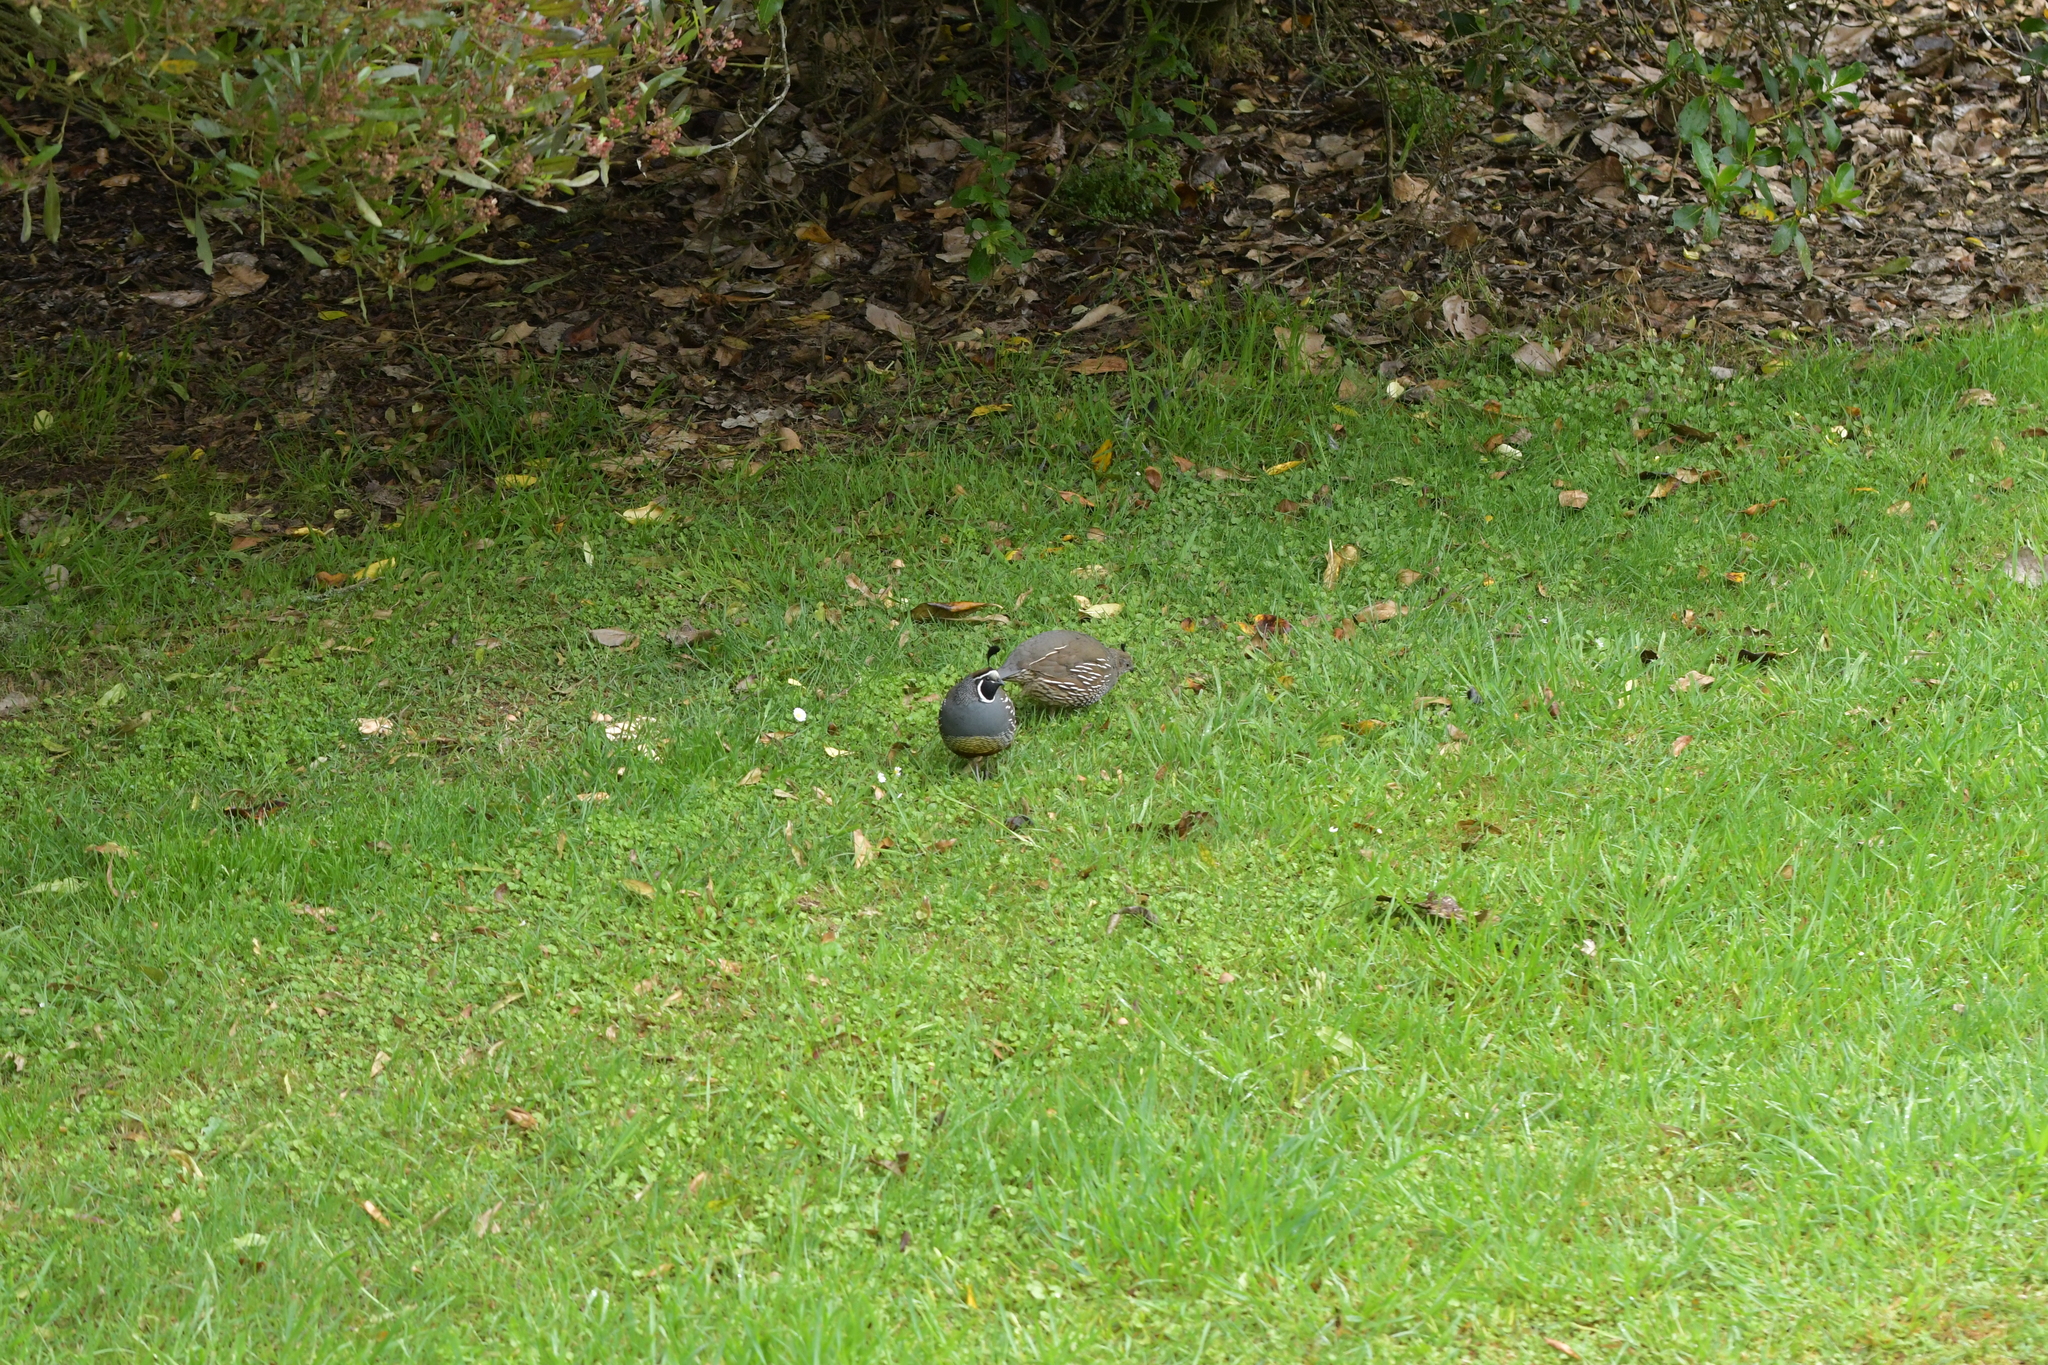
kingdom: Animalia
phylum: Chordata
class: Aves
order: Galliformes
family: Odontophoridae
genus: Callipepla
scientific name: Callipepla californica
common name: California quail
